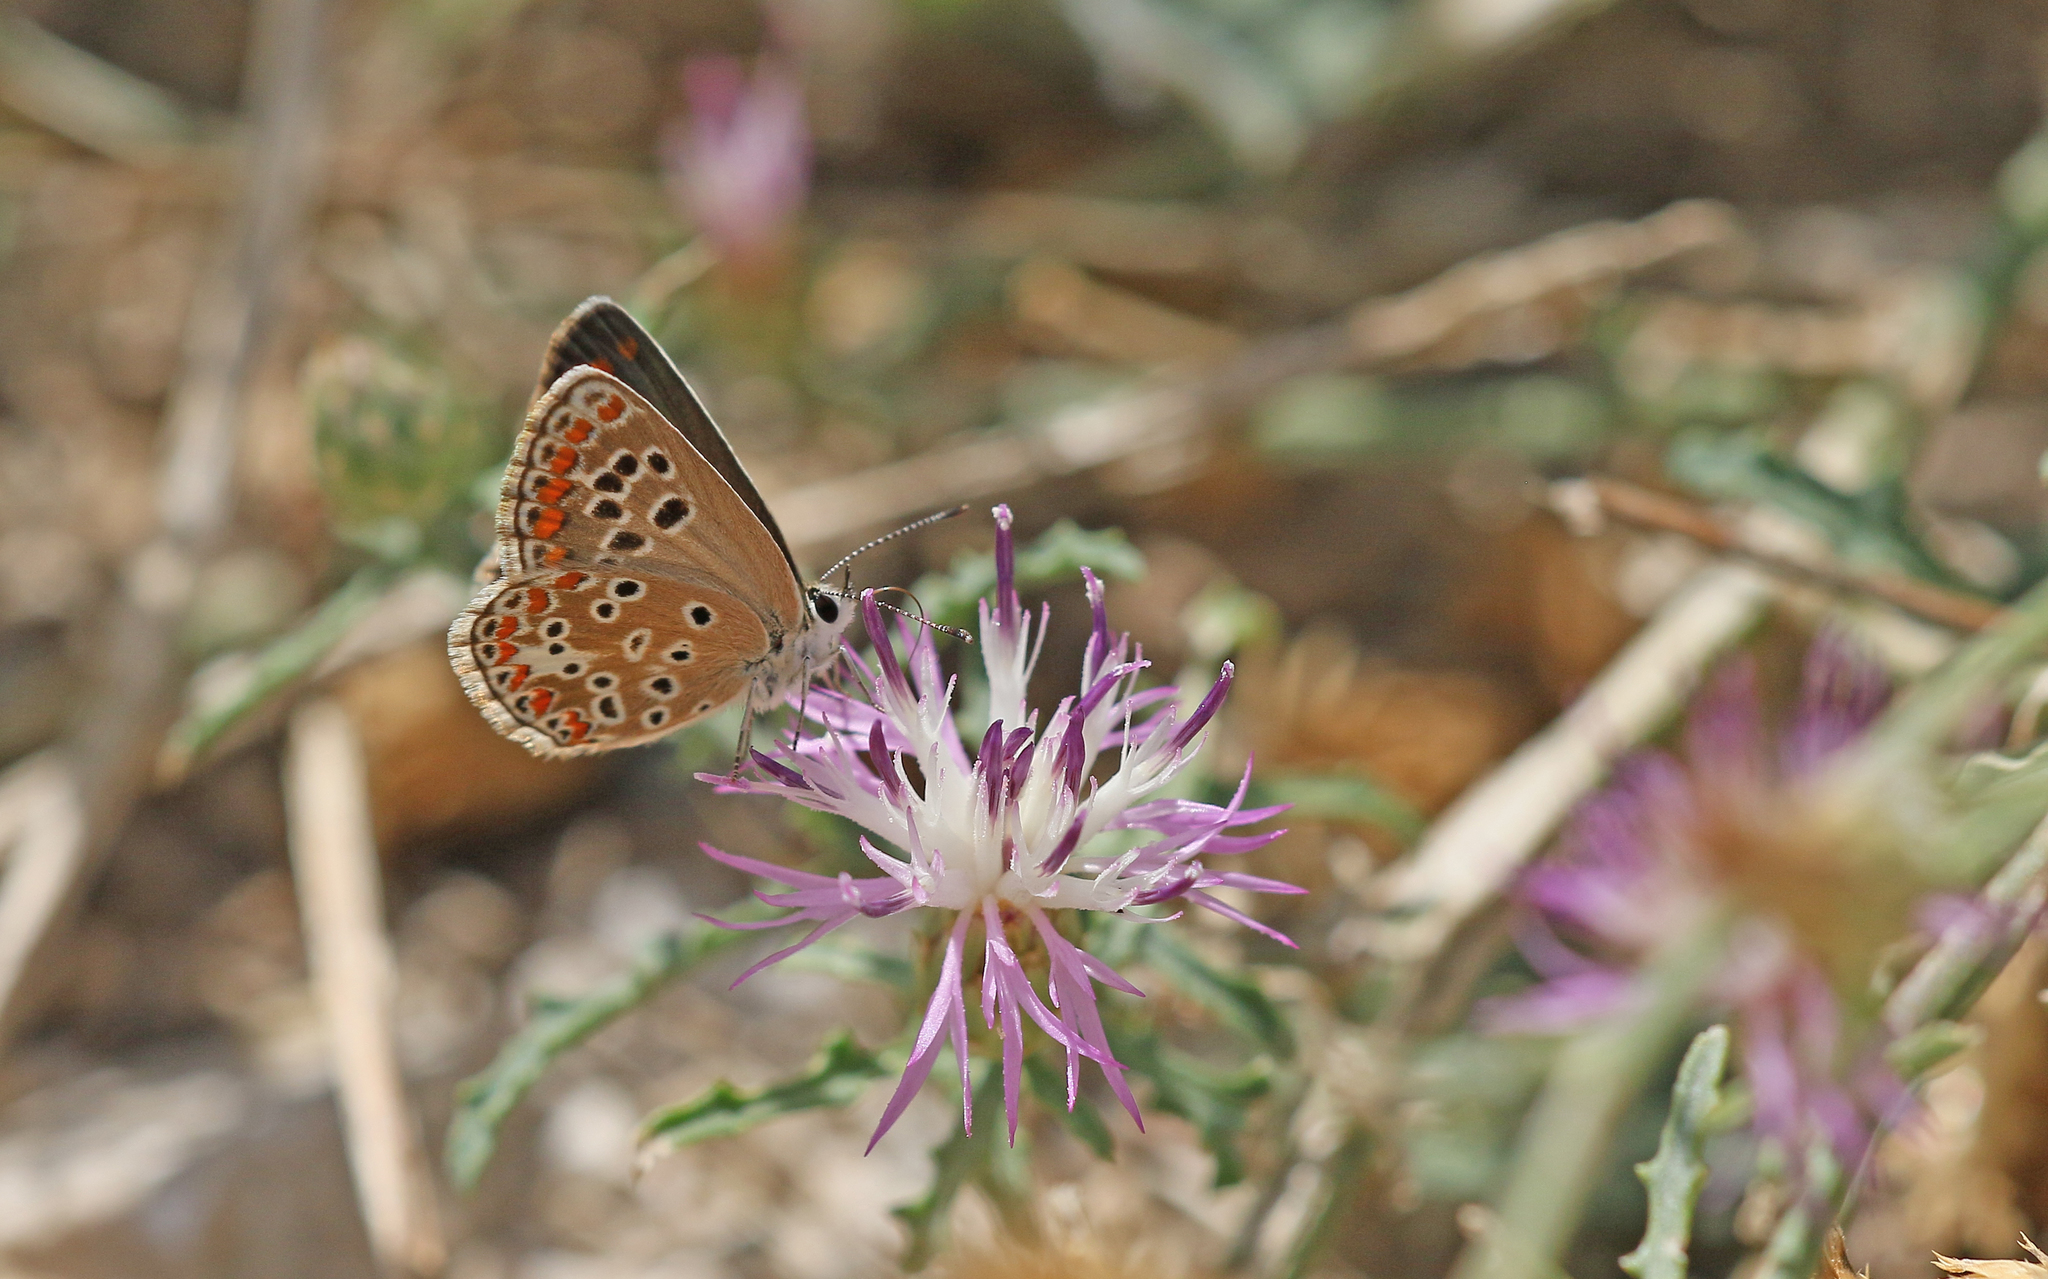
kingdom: Animalia
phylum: Arthropoda
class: Insecta
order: Lepidoptera
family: Lycaenidae
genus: Aricia
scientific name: Aricia agestis
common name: Brown argus
